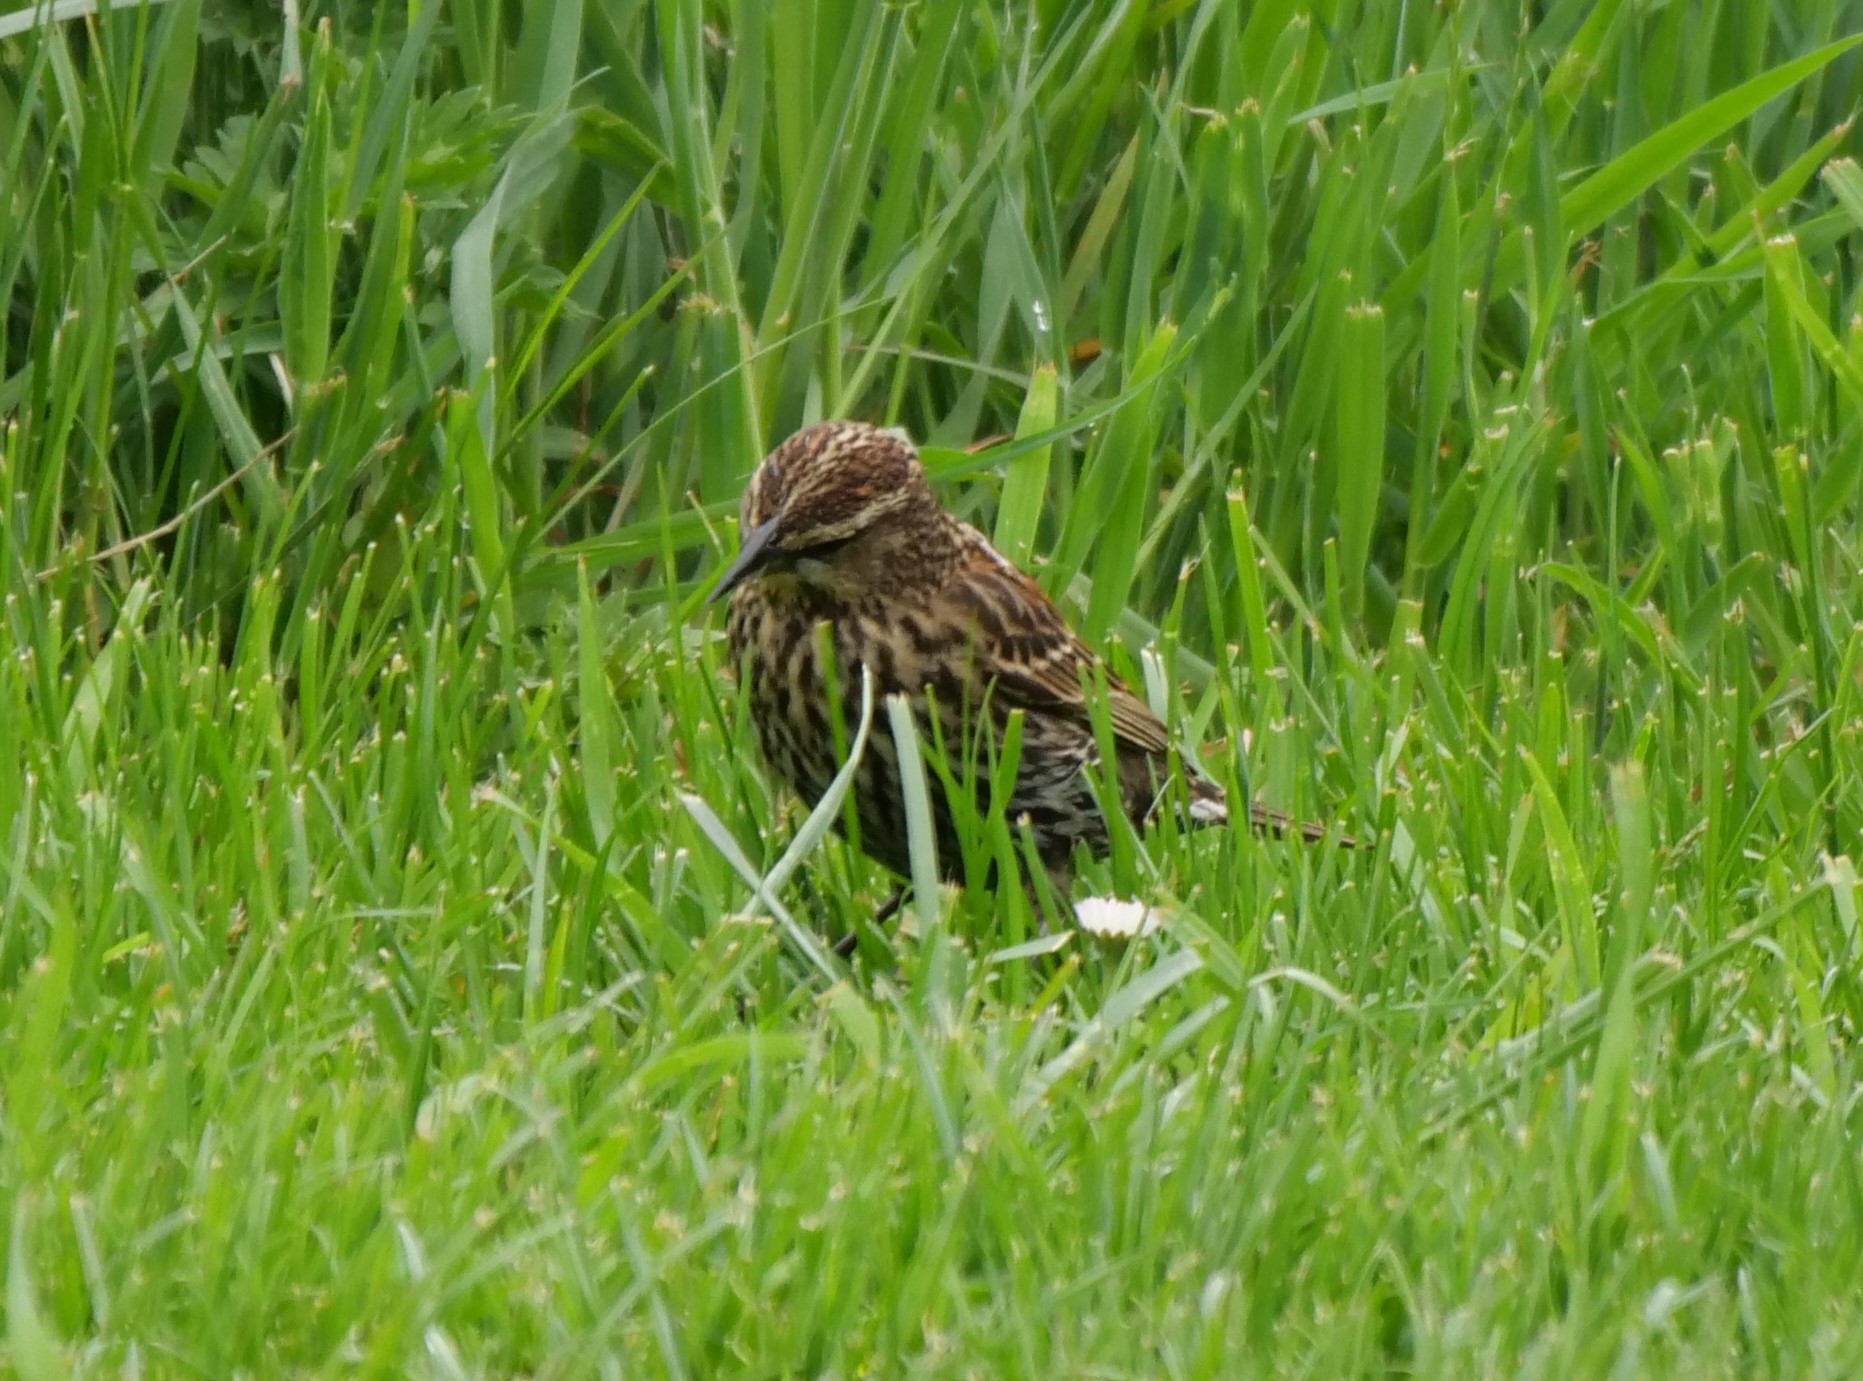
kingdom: Animalia
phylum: Chordata
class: Aves
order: Passeriformes
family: Icteridae
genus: Agelaius
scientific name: Agelaius phoeniceus
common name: Red-winged blackbird
